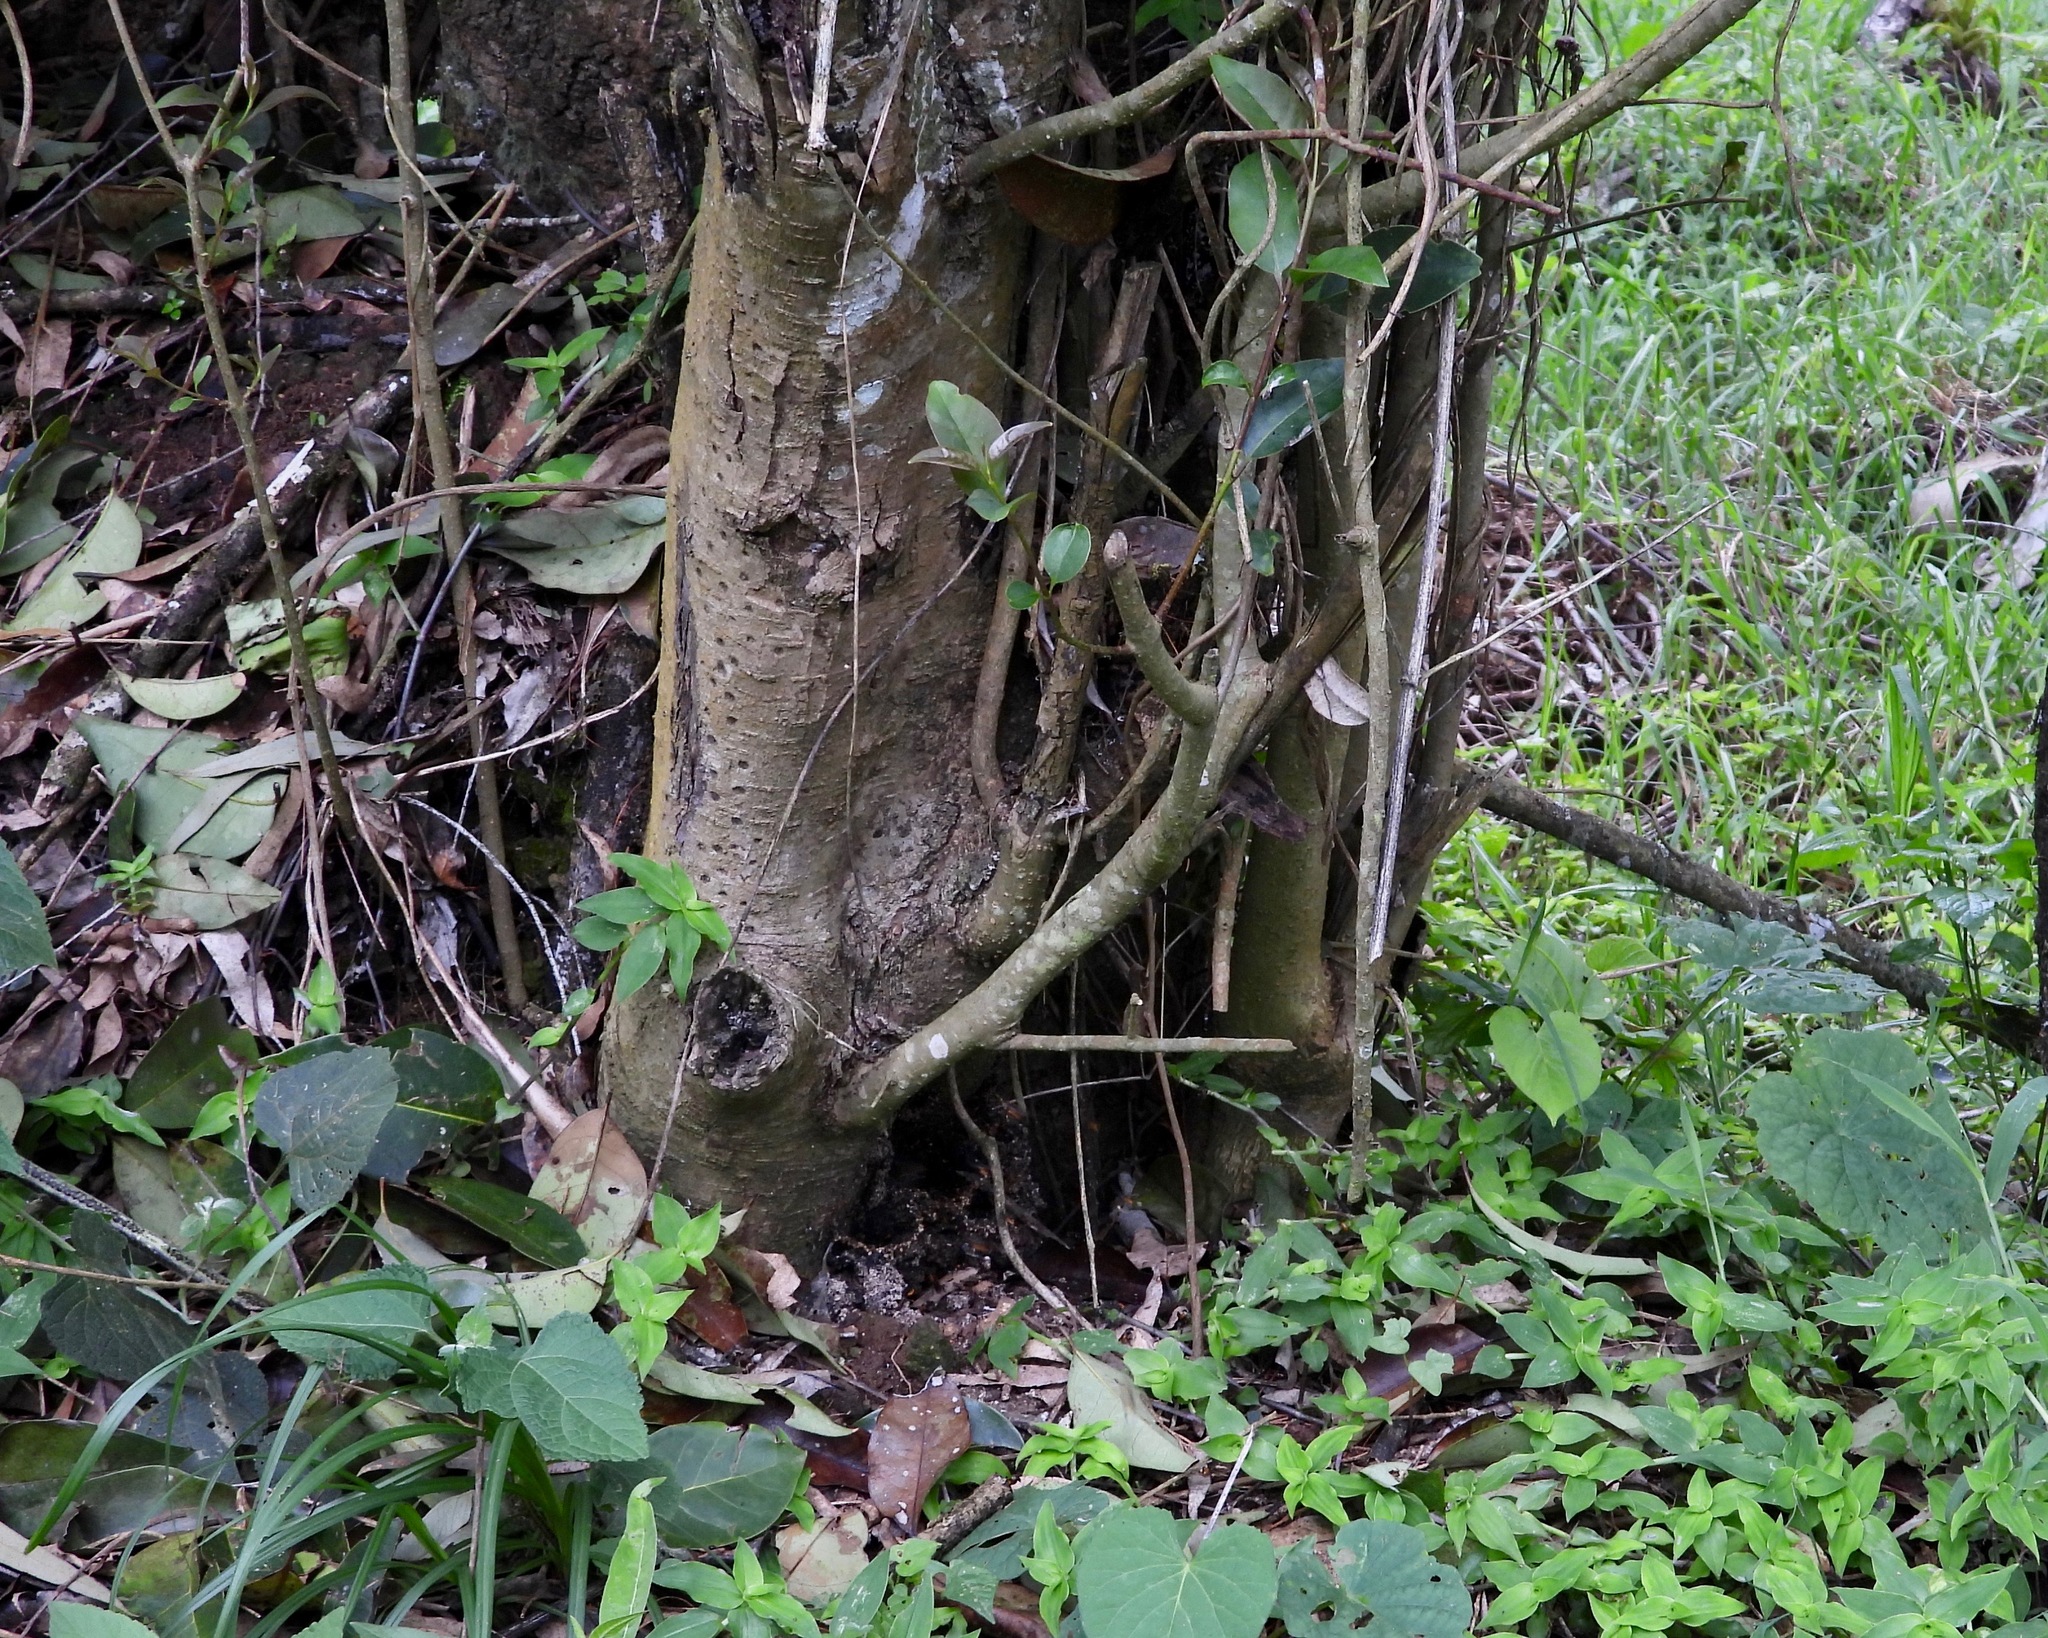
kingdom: Animalia
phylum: Arthropoda
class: Insecta
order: Hymenoptera
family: Apidae
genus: Trigona
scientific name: Trigona fulviventris
